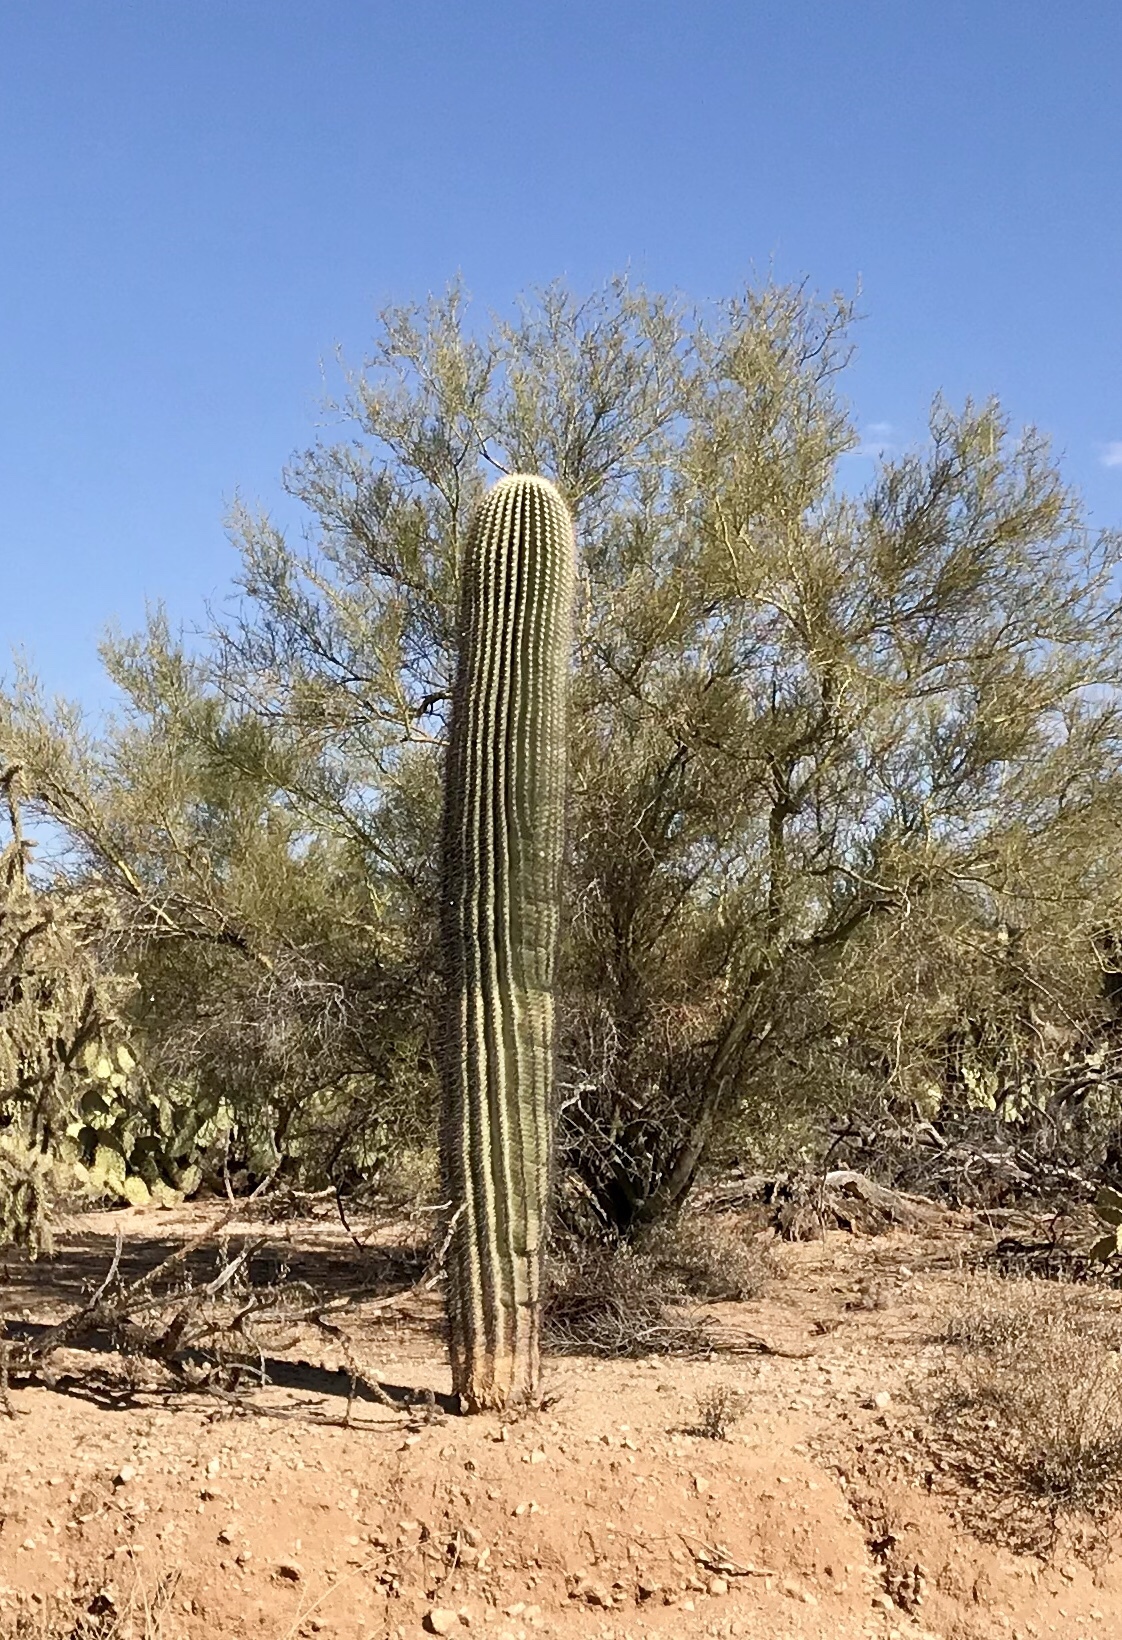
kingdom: Plantae
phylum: Tracheophyta
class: Magnoliopsida
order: Caryophyllales
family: Cactaceae
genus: Carnegiea
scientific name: Carnegiea gigantea
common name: Saguaro
